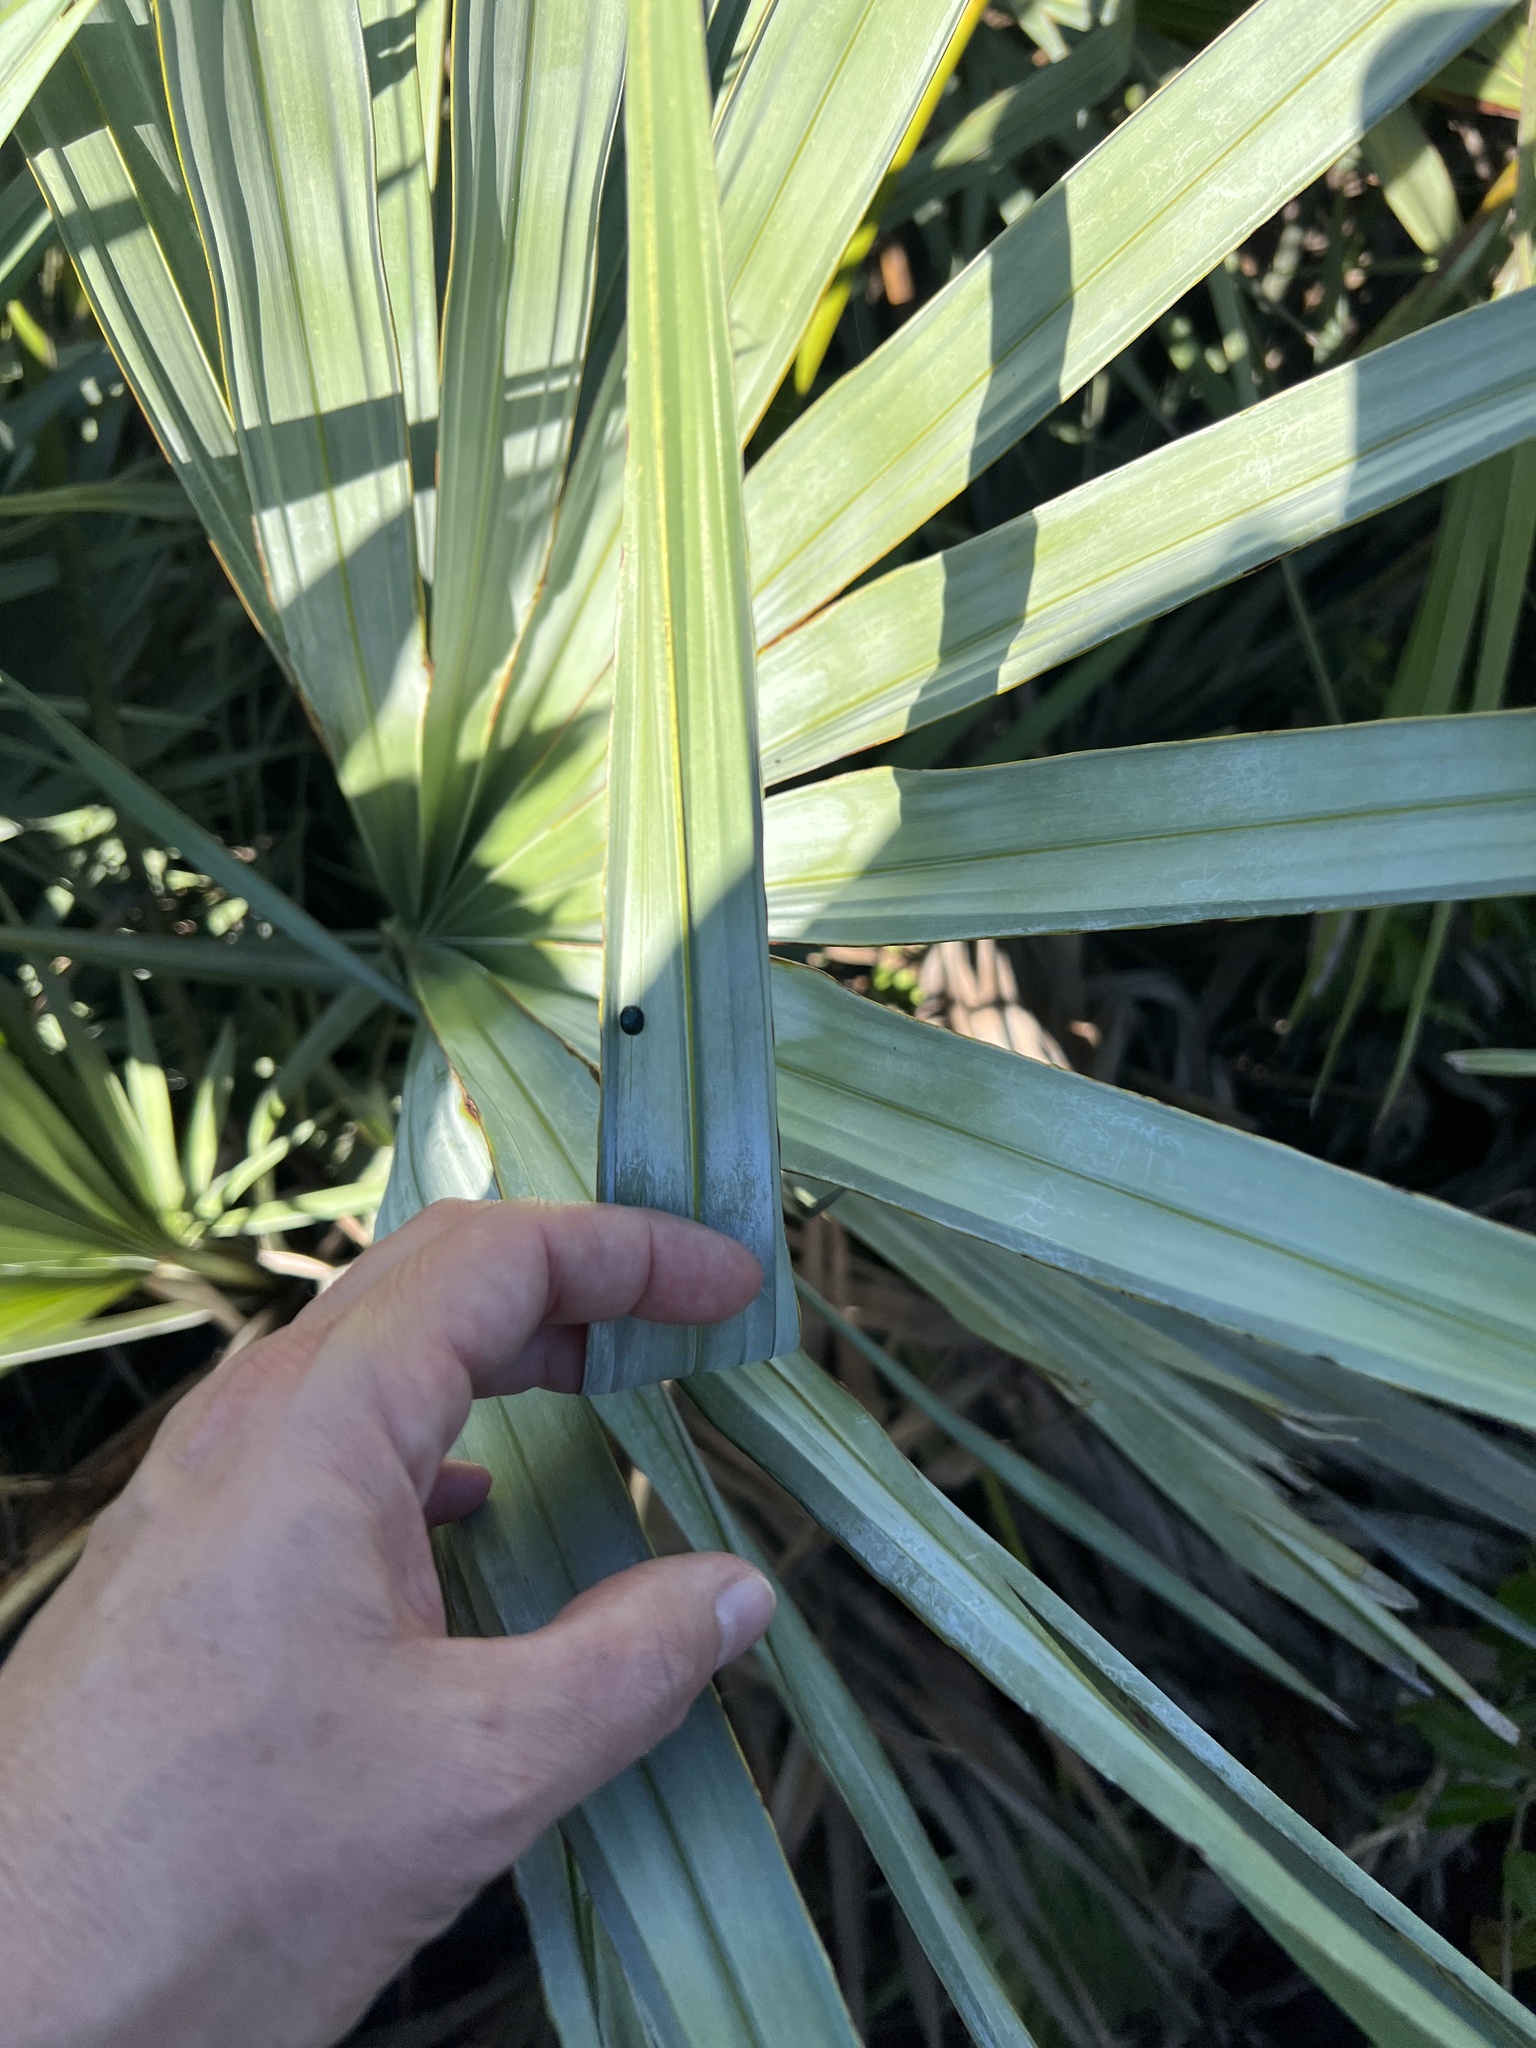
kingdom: Animalia
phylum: Arthropoda
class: Insecta
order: Coleoptera
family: Chrysomelidae
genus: Hemisphaerota
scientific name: Hemisphaerota cyanea
